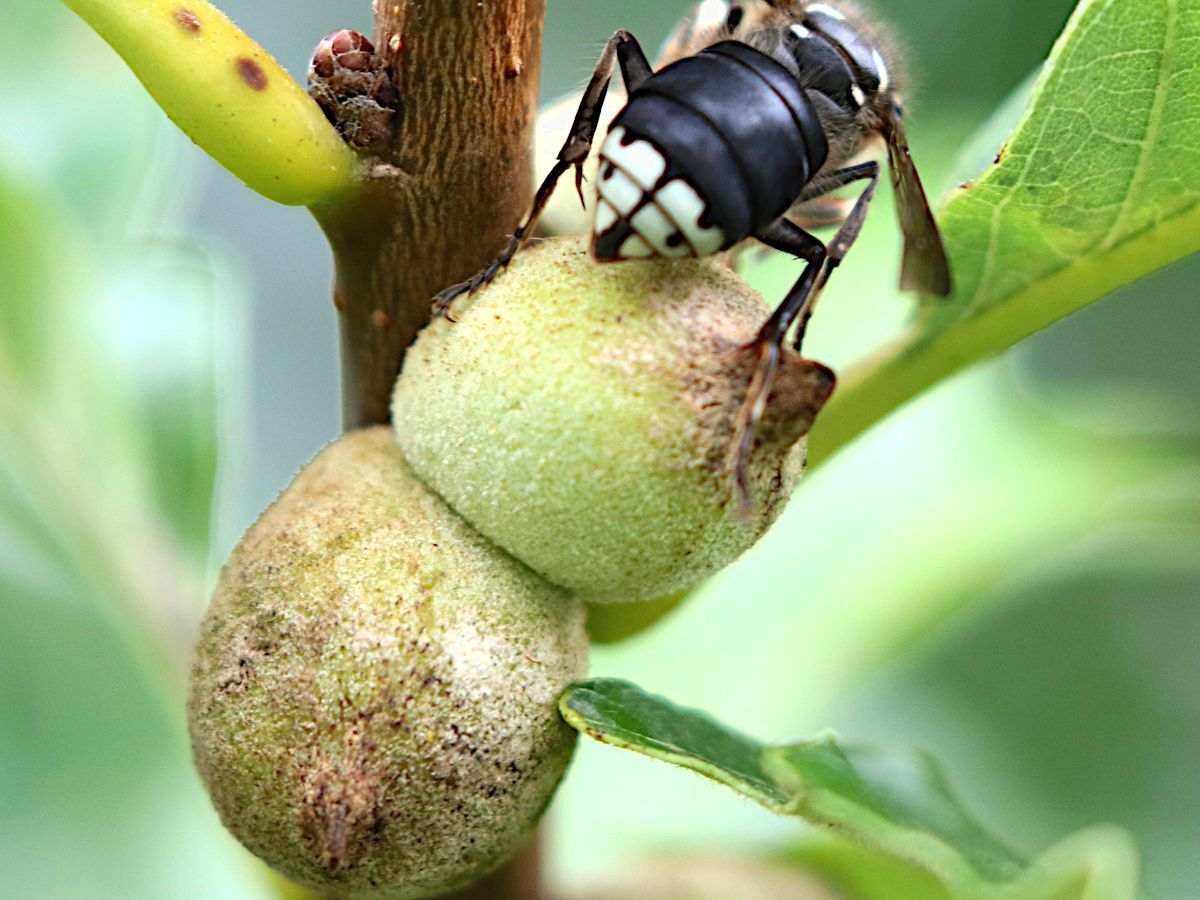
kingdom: Animalia
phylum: Arthropoda
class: Insecta
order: Hymenoptera
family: Cynipidae
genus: Disholcaspis
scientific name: Disholcaspis
